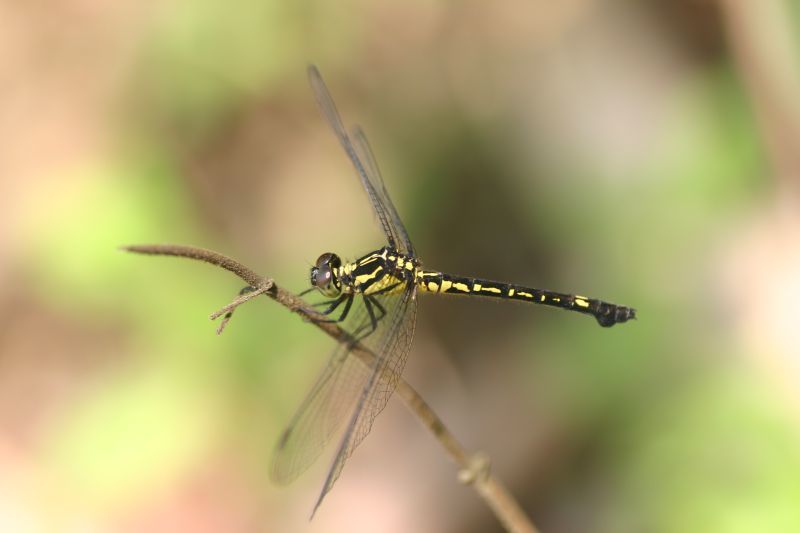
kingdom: Animalia
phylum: Arthropoda
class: Insecta
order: Odonata
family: Libellulidae
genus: Phyllothemis
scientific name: Phyllothemis eltoni
